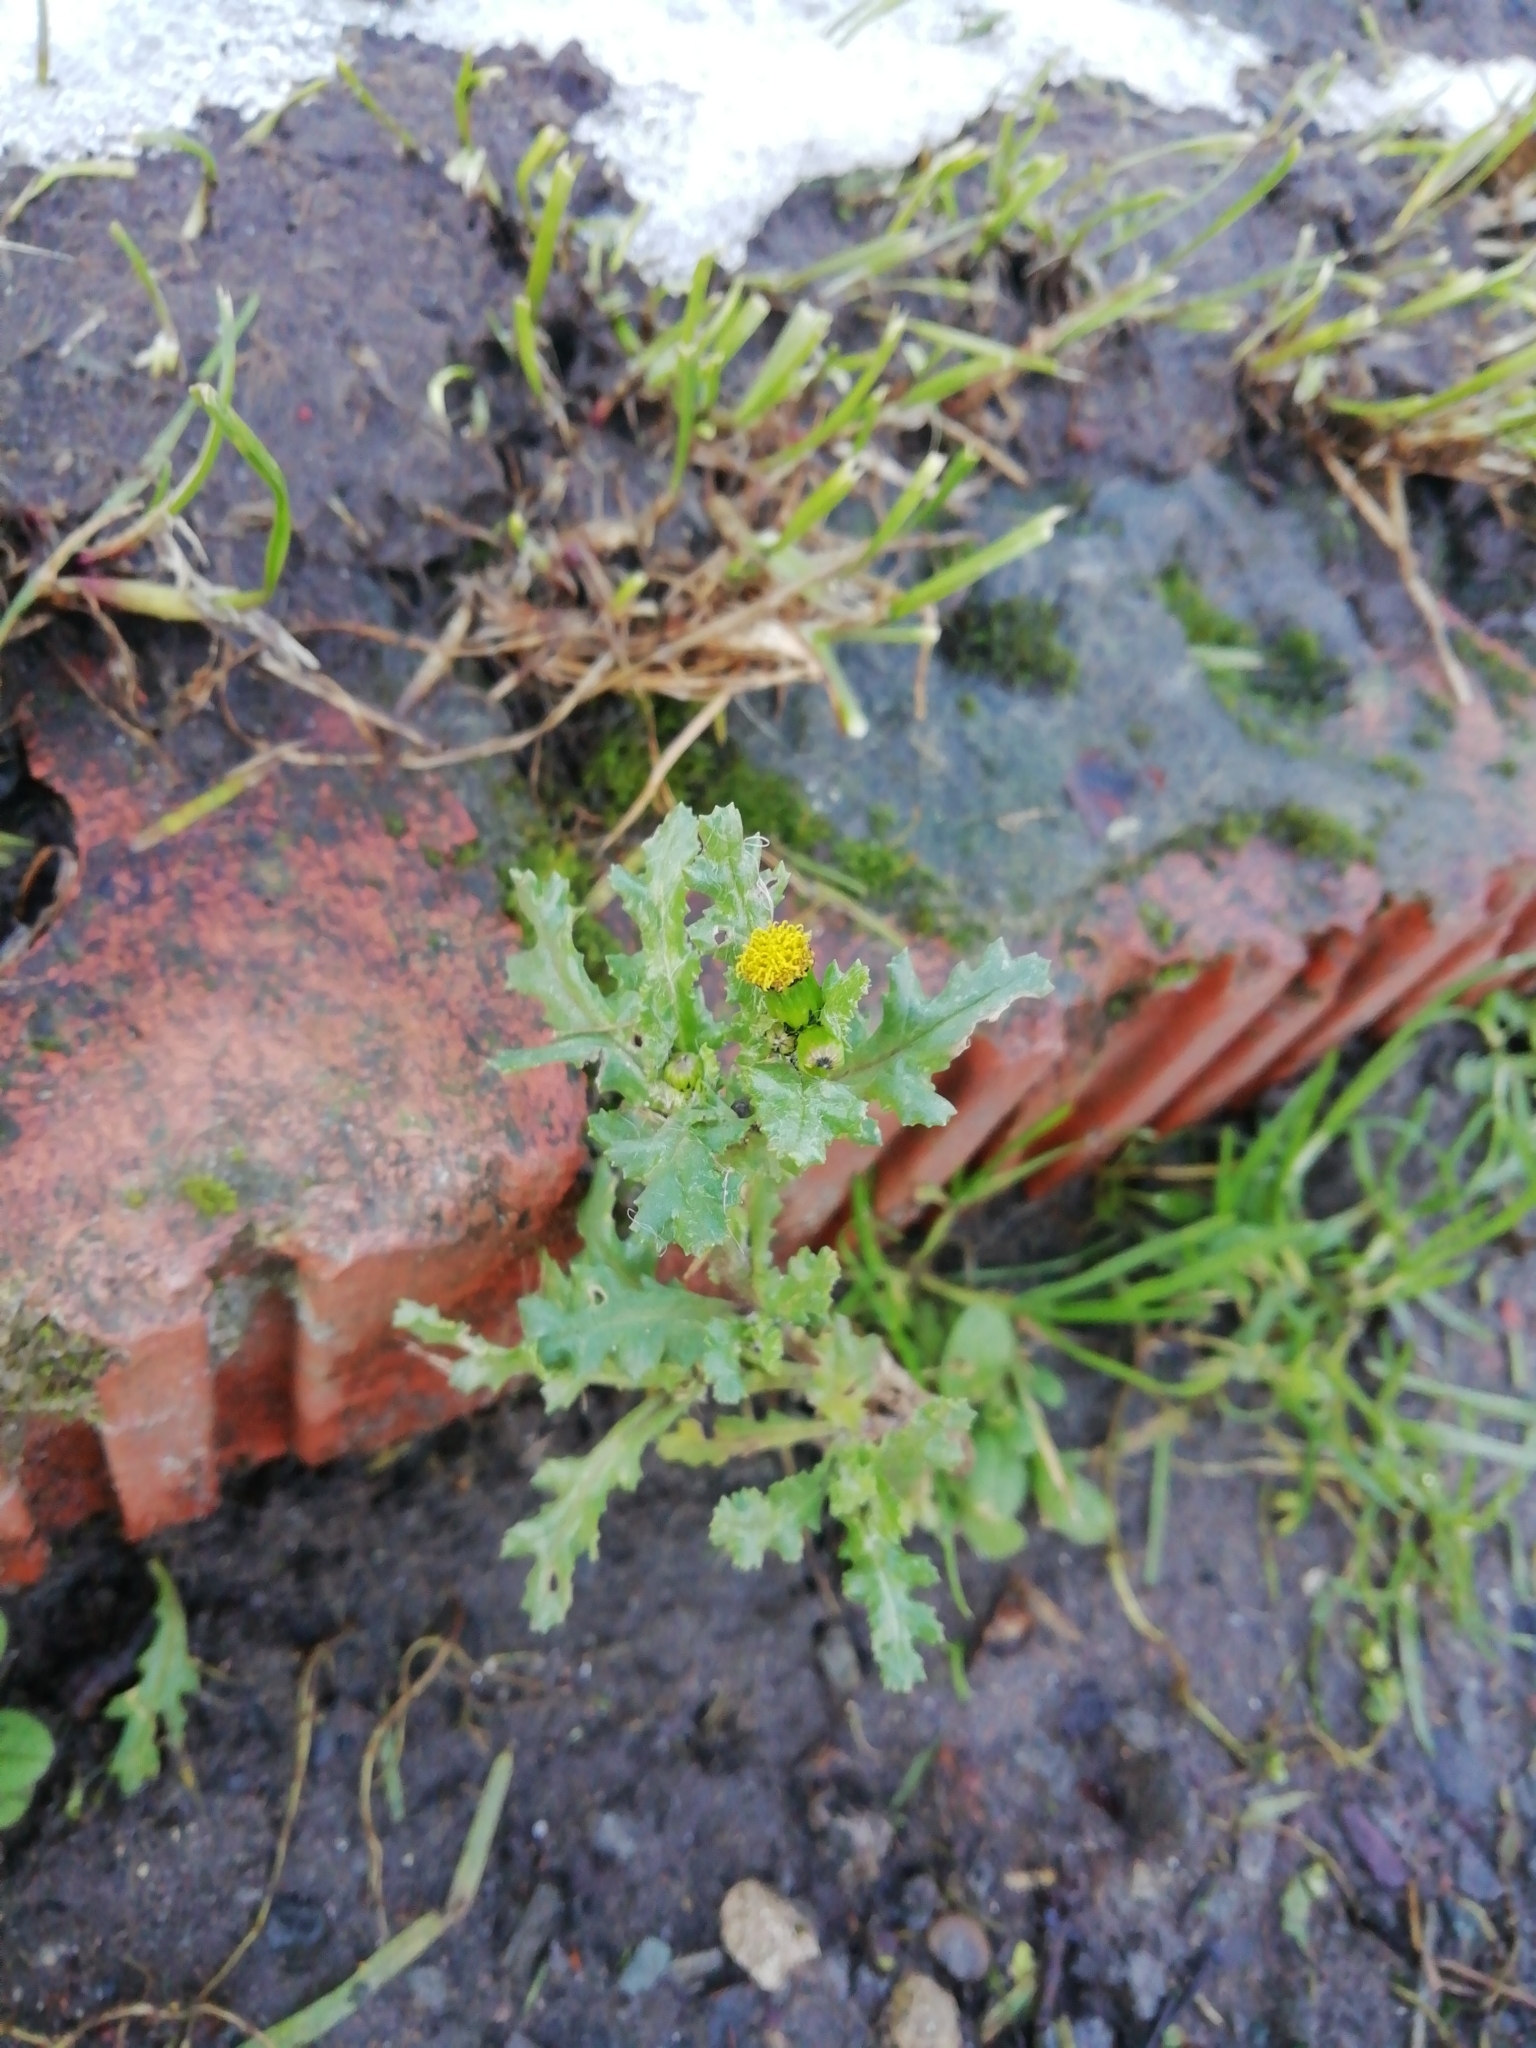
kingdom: Plantae
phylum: Tracheophyta
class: Magnoliopsida
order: Asterales
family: Asteraceae
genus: Senecio
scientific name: Senecio vulgaris
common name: Old-man-in-the-spring
